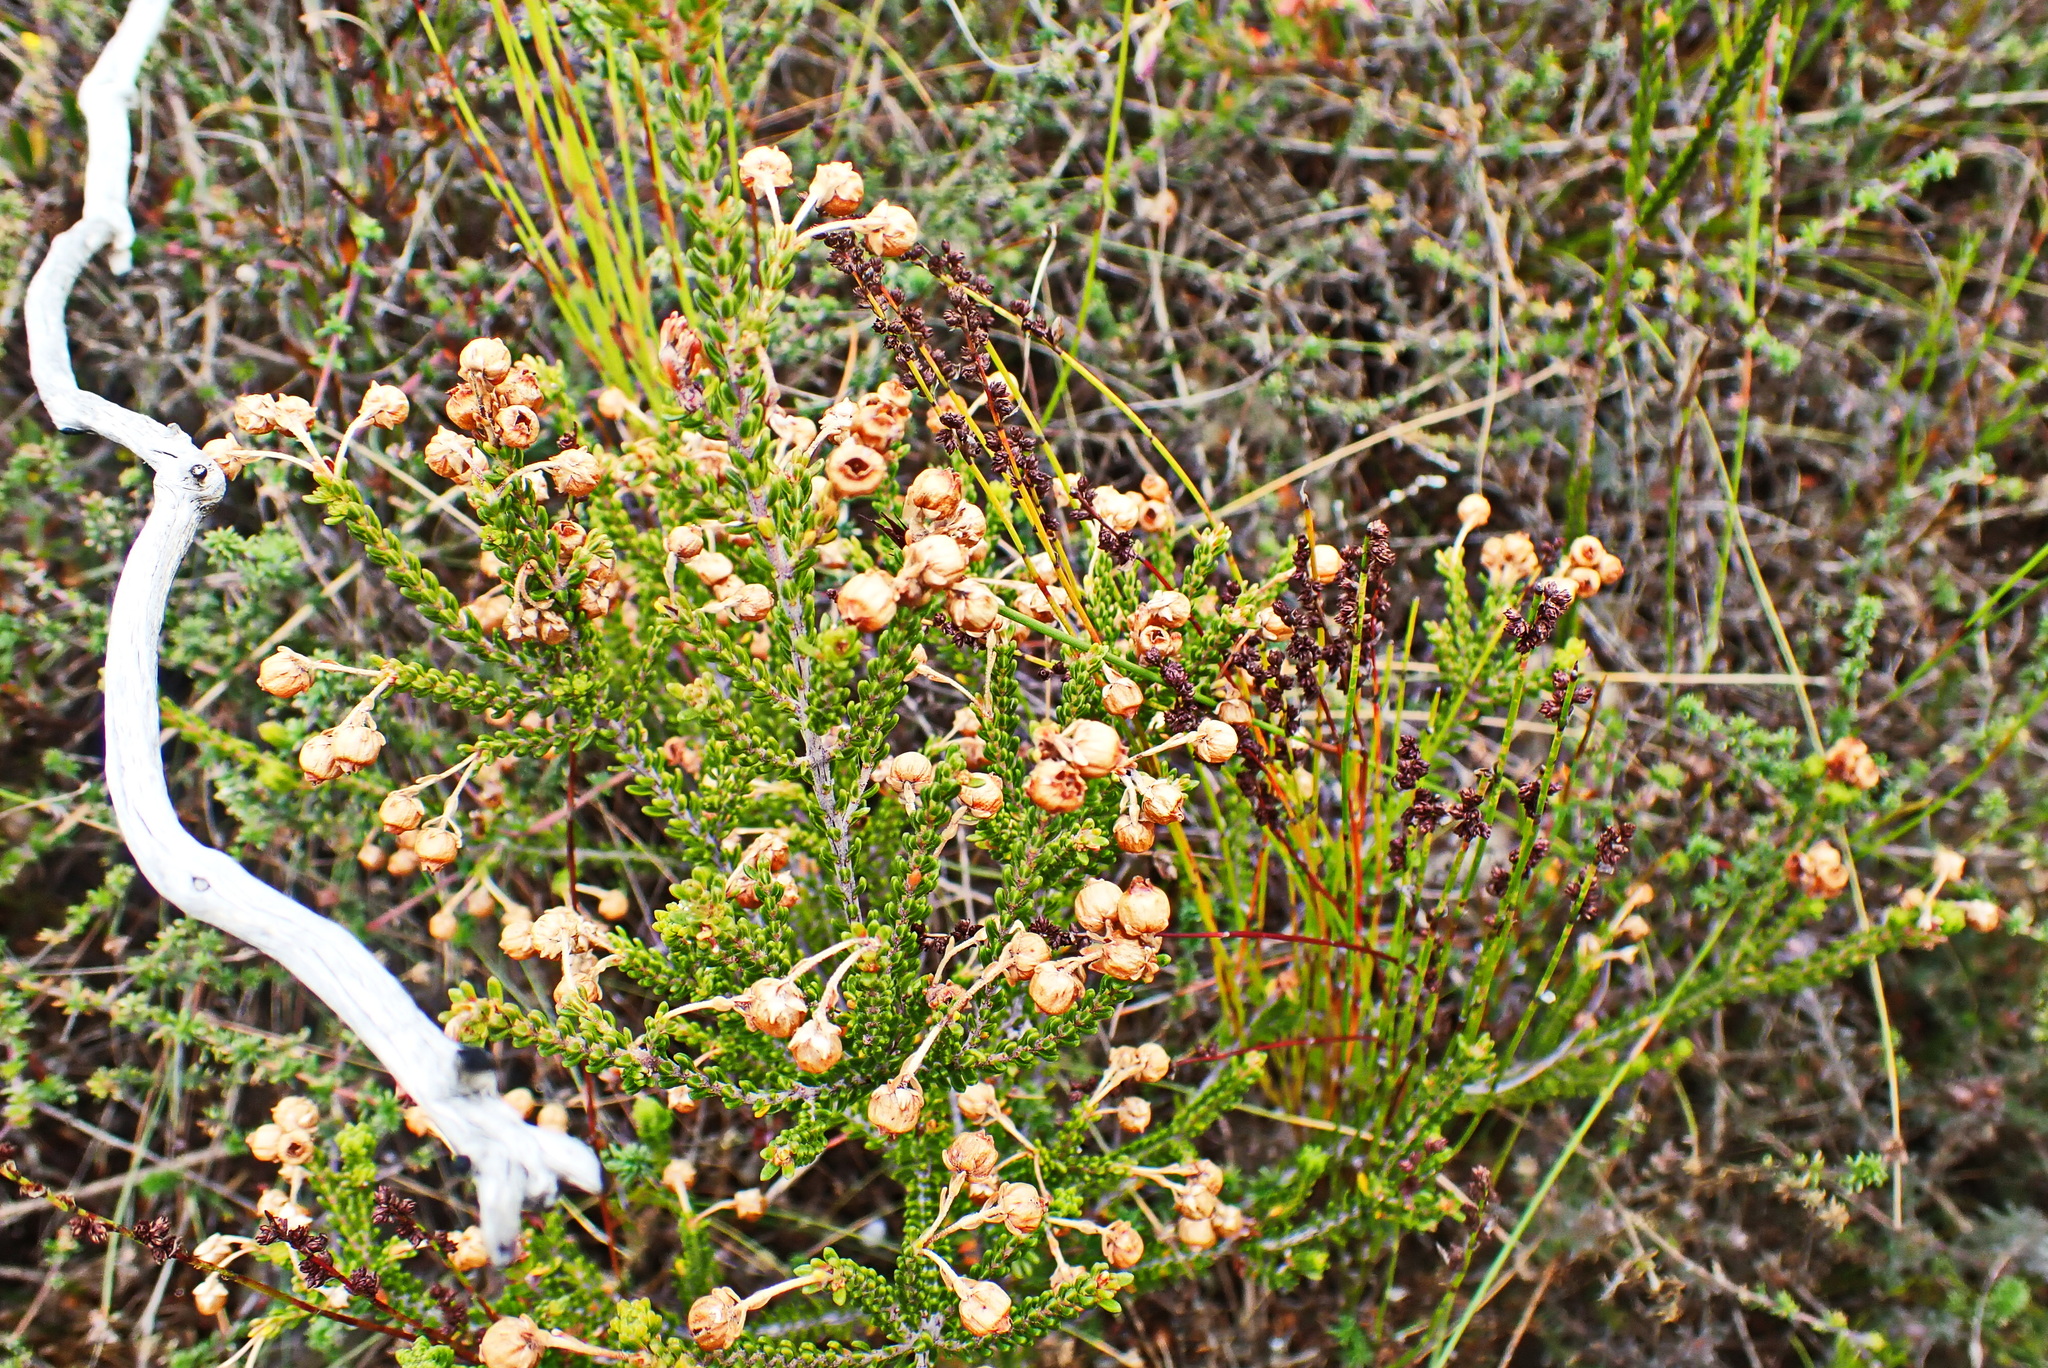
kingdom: Plantae
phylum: Tracheophyta
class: Magnoliopsida
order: Ericales
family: Ericaceae
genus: Erica
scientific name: Erica spectabilis
